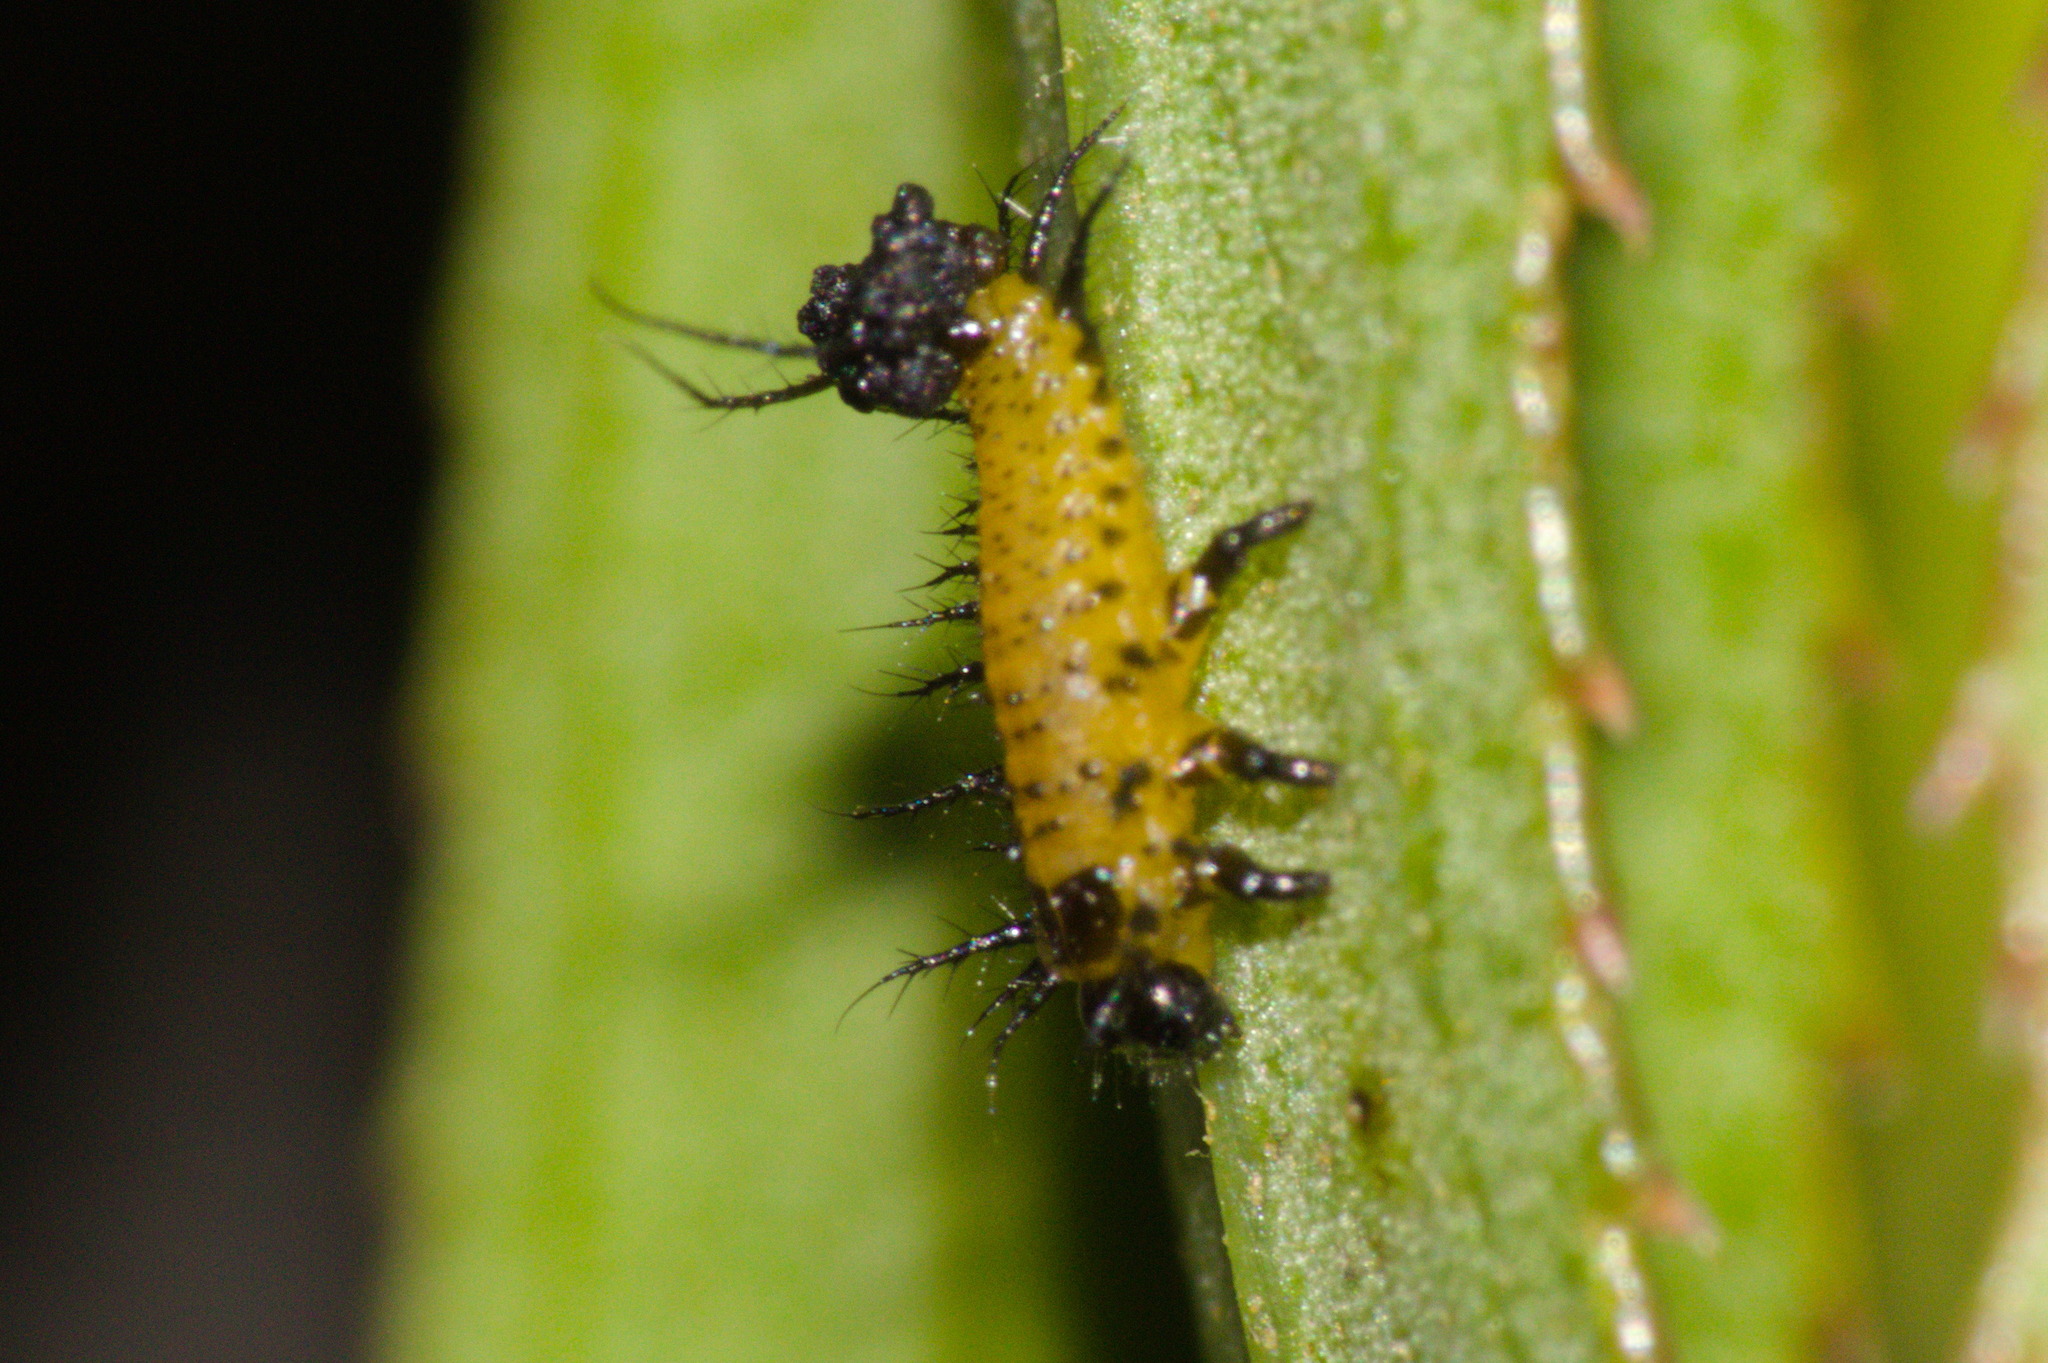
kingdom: Animalia
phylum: Arthropoda
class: Insecta
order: Coleoptera
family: Chrysomelidae
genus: Anacassis
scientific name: Anacassis cribrum
